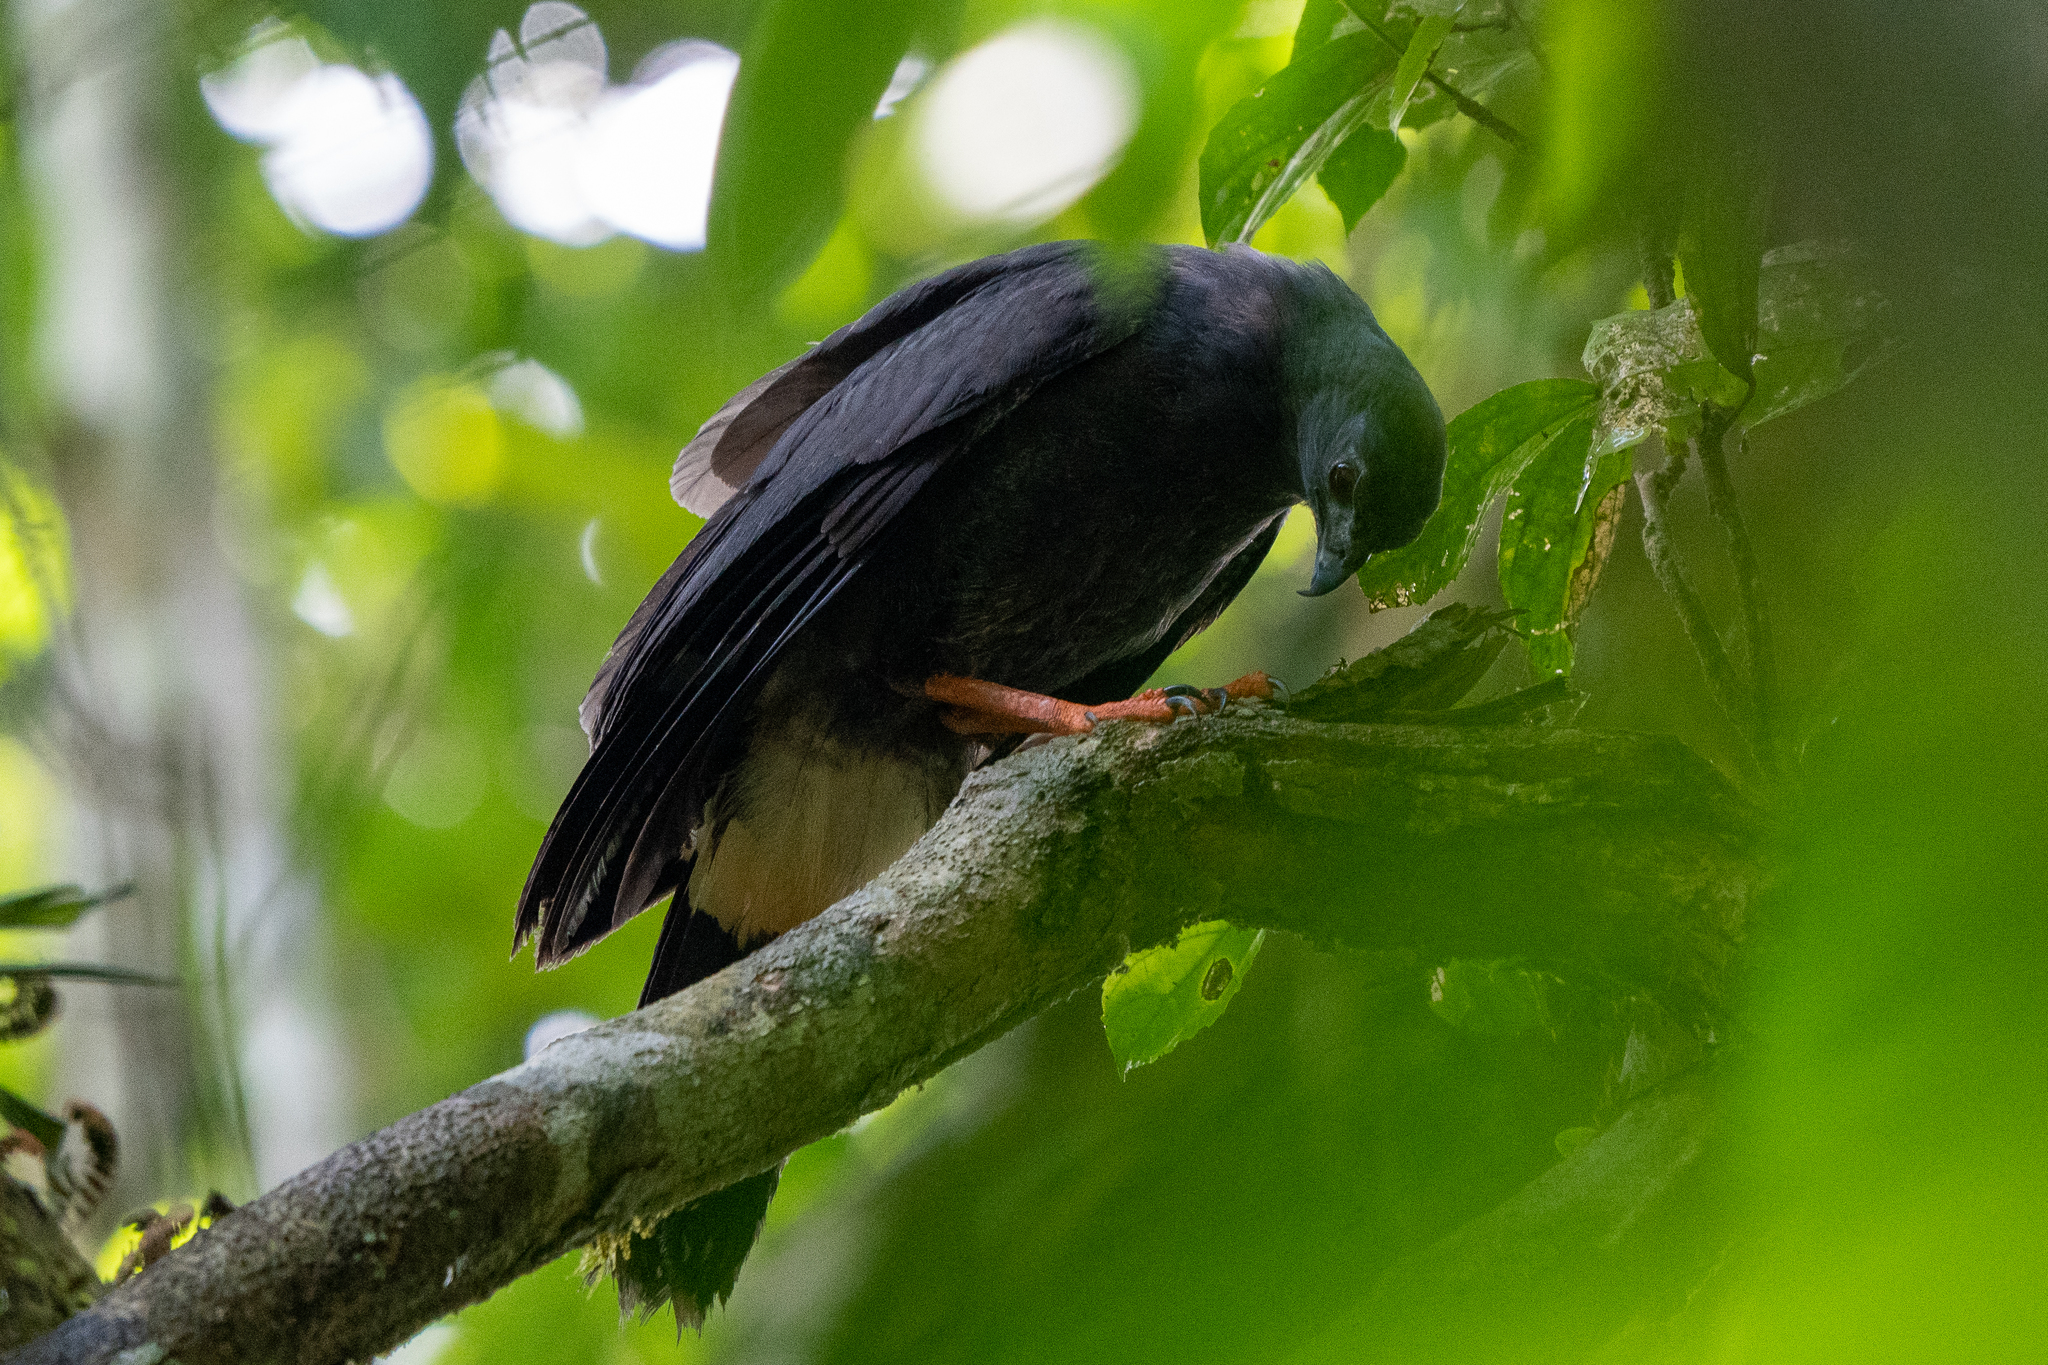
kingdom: Animalia
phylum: Chordata
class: Aves
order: Accipitriformes
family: Accipitridae
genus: Geranospiza
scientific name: Geranospiza caerulescens
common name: Crane hawk
